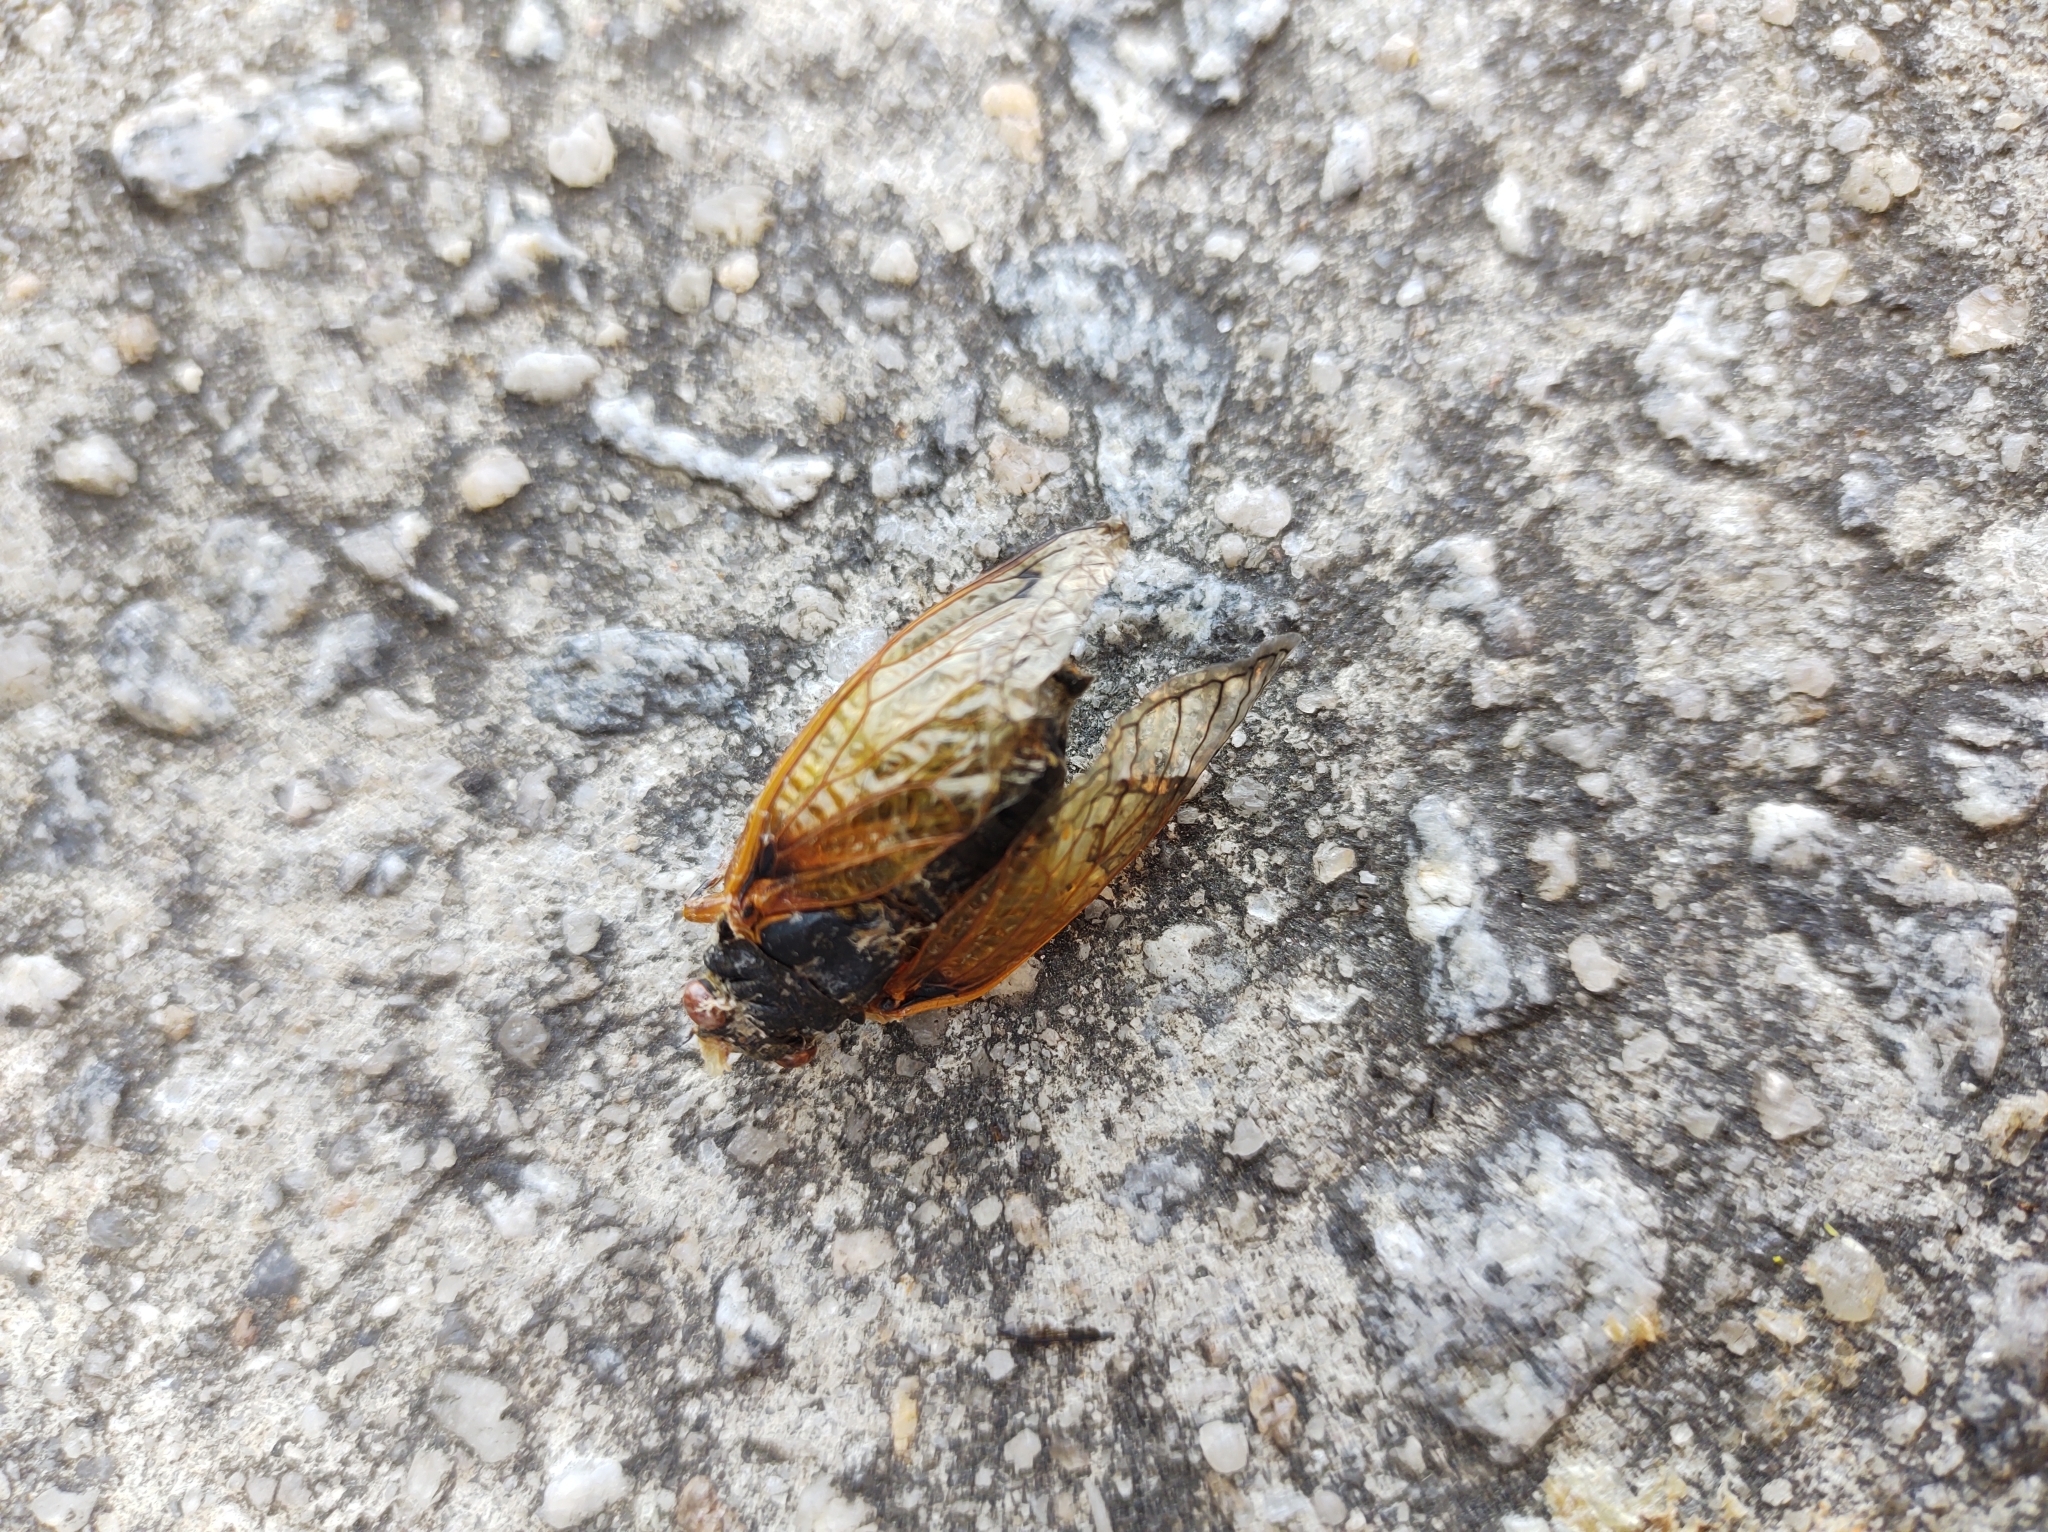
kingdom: Animalia
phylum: Arthropoda
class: Insecta
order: Hemiptera
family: Cicadidae
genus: Magicicada
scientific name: Magicicada
